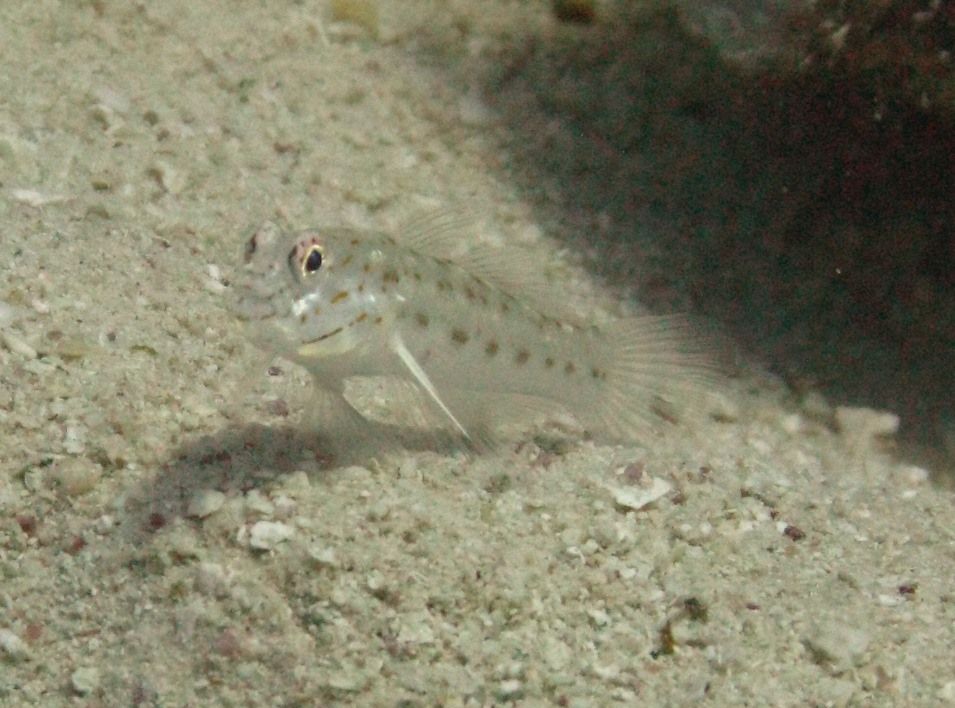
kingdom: Animalia
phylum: Chordata
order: Perciformes
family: Gobiidae
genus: Ctenogobiops
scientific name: Ctenogobiops crocineus
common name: Silverspot shrimpgoby
